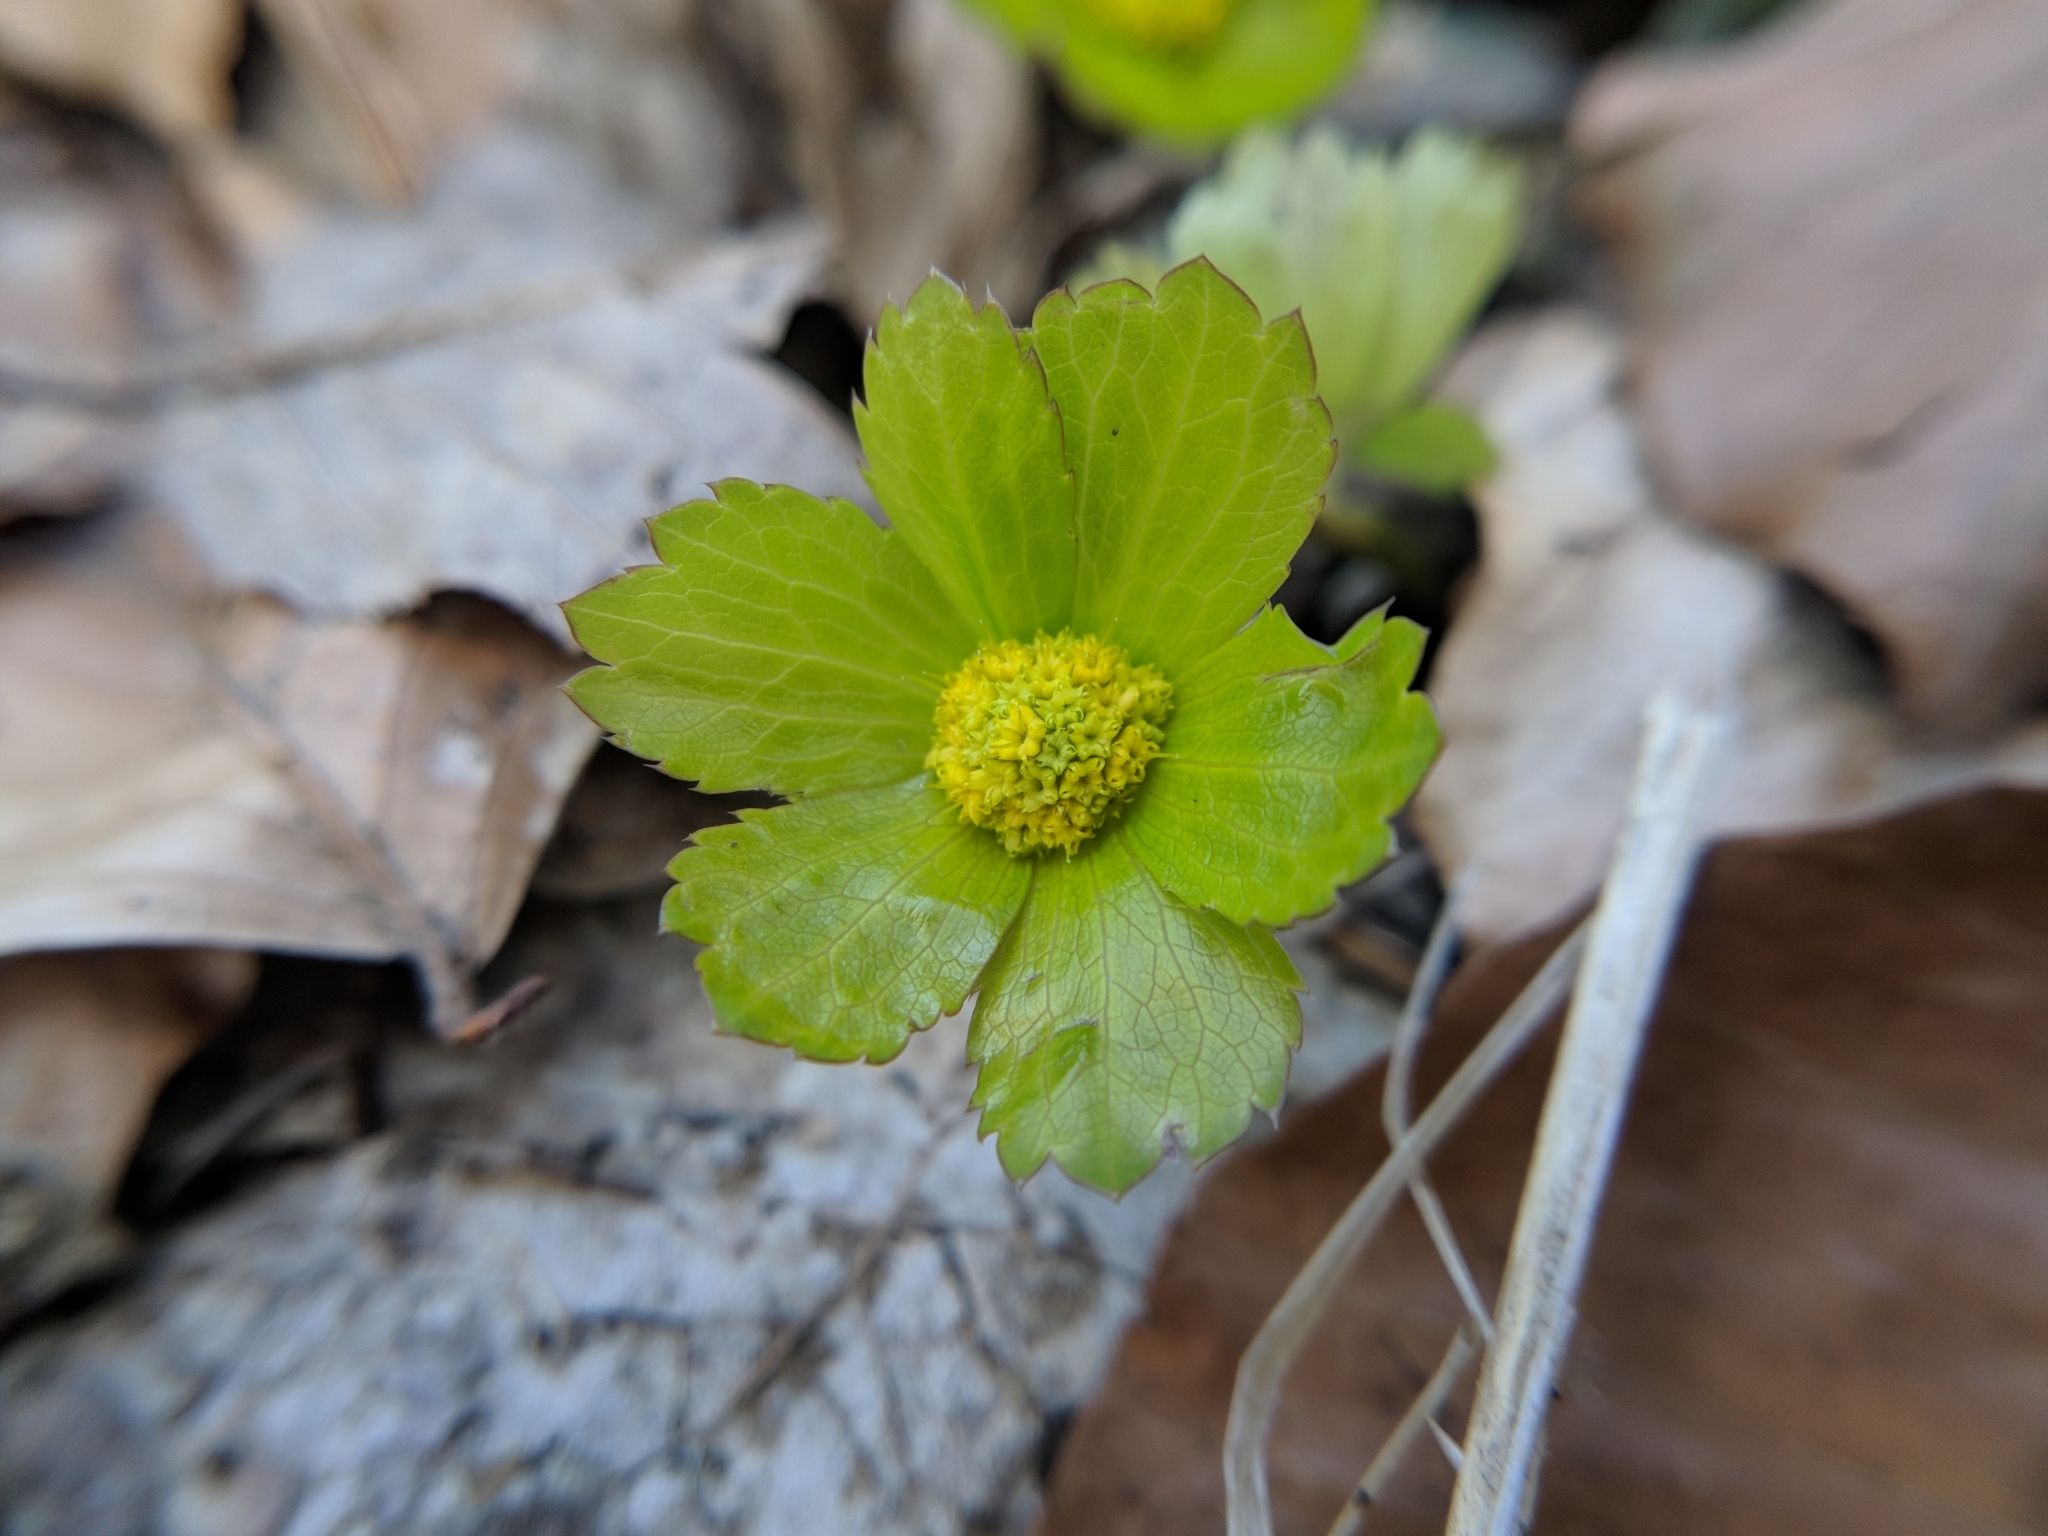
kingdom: Plantae
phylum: Tracheophyta
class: Magnoliopsida
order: Apiales
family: Apiaceae
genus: Sanicula
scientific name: Sanicula epipactis
